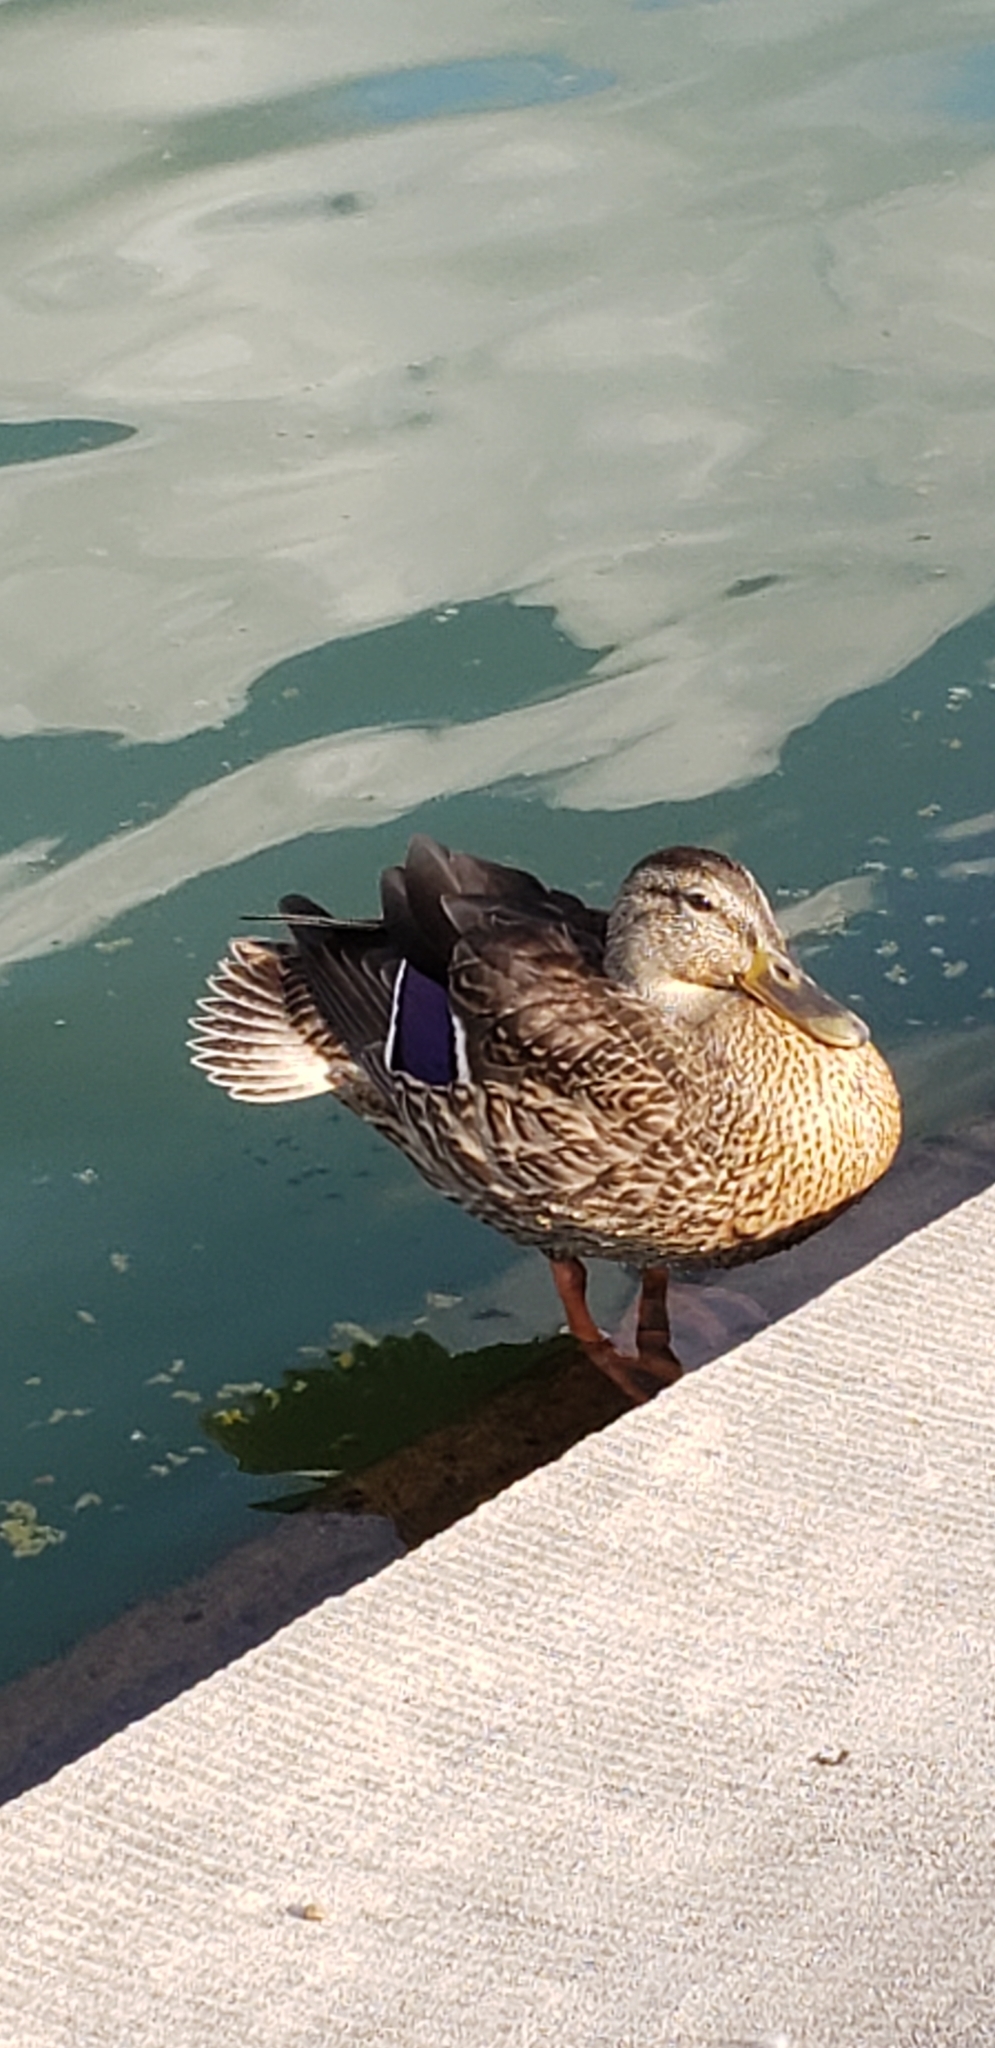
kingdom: Animalia
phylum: Chordata
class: Aves
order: Anseriformes
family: Anatidae
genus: Anas
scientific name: Anas platyrhynchos
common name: Mallard
